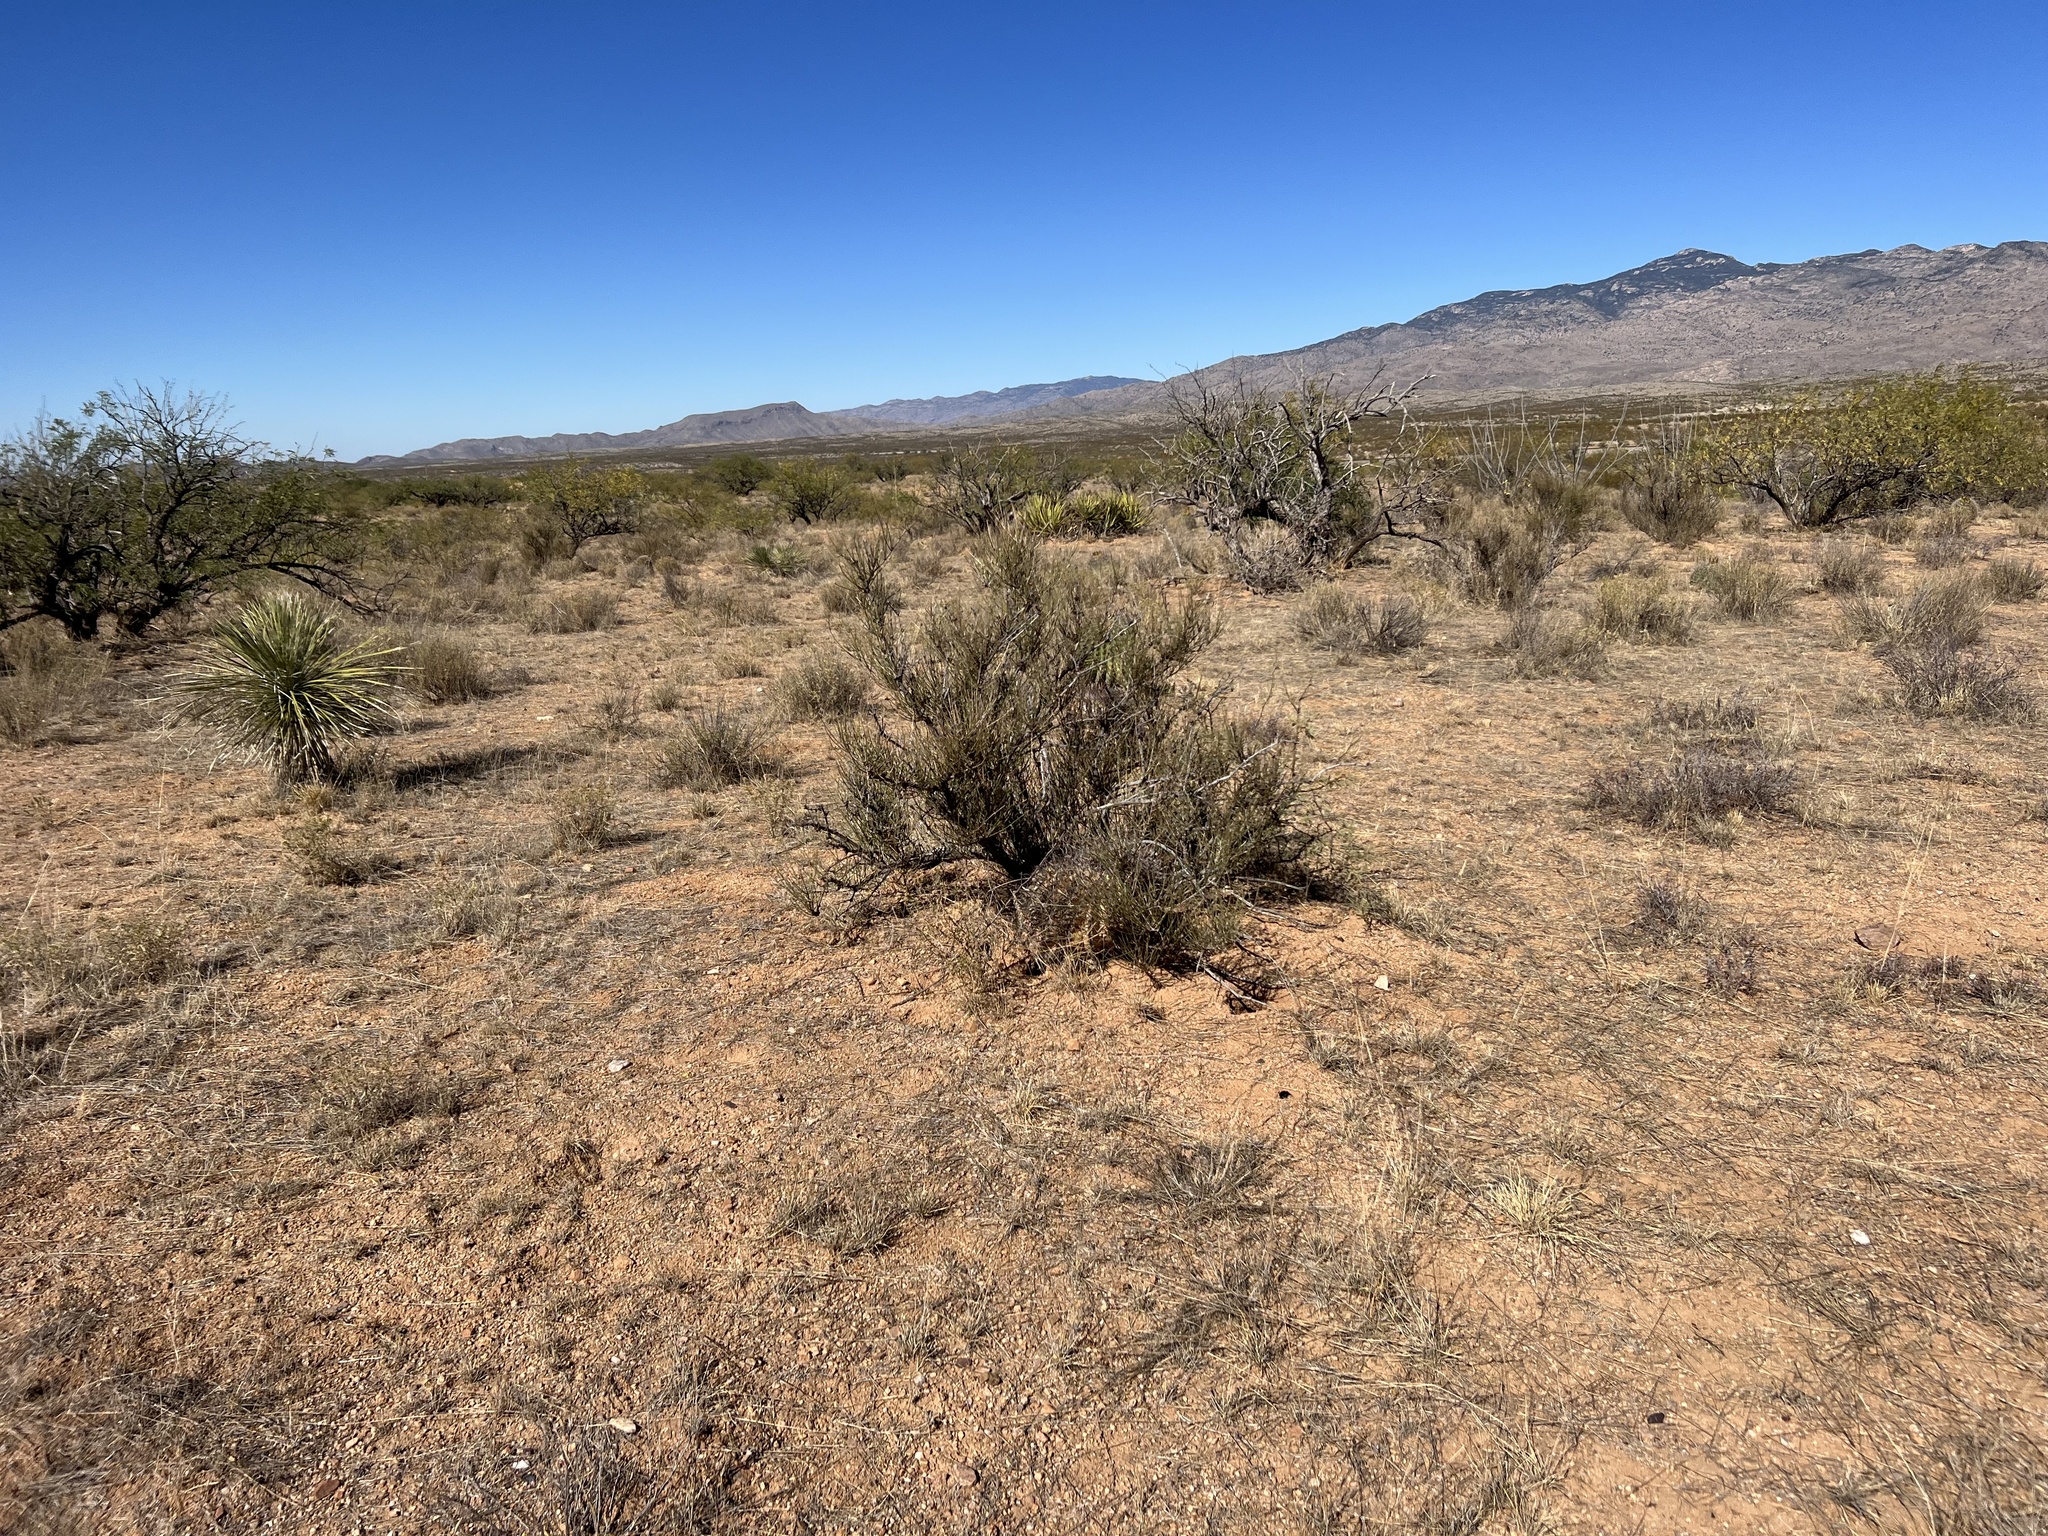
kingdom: Plantae
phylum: Tracheophyta
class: Gnetopsida
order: Ephedrales
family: Ephedraceae
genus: Ephedra
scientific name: Ephedra trifurca
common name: Mexican-tea
